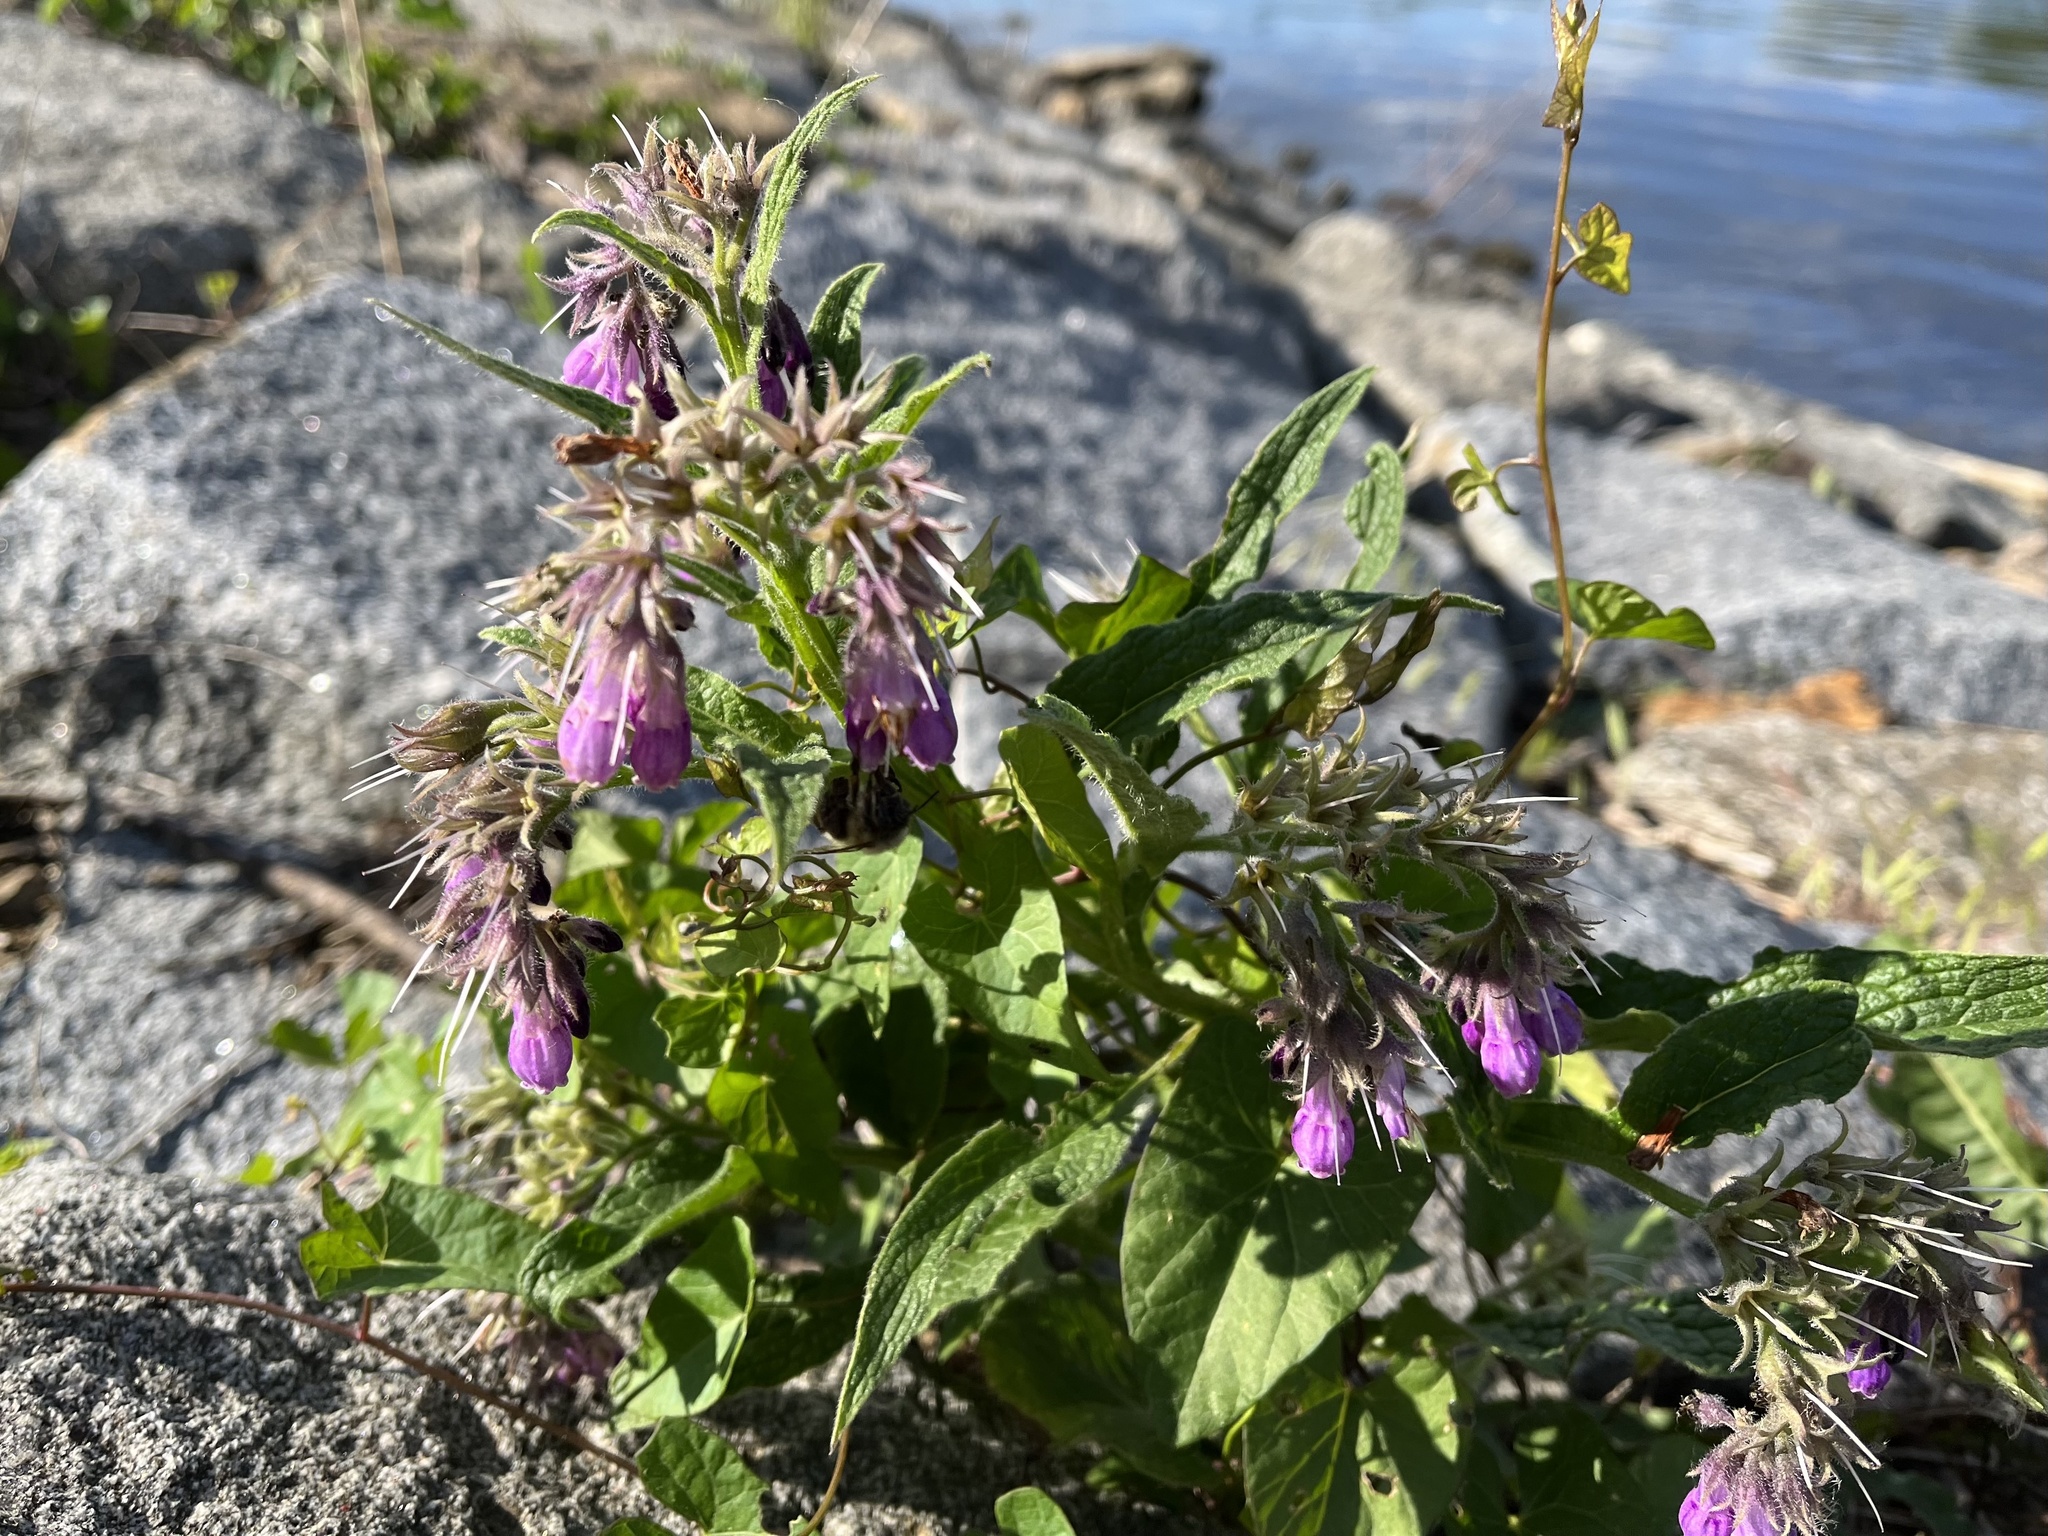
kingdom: Plantae
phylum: Tracheophyta
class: Magnoliopsida
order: Boraginales
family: Boraginaceae
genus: Symphytum
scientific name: Symphytum officinale
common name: Common comfrey
